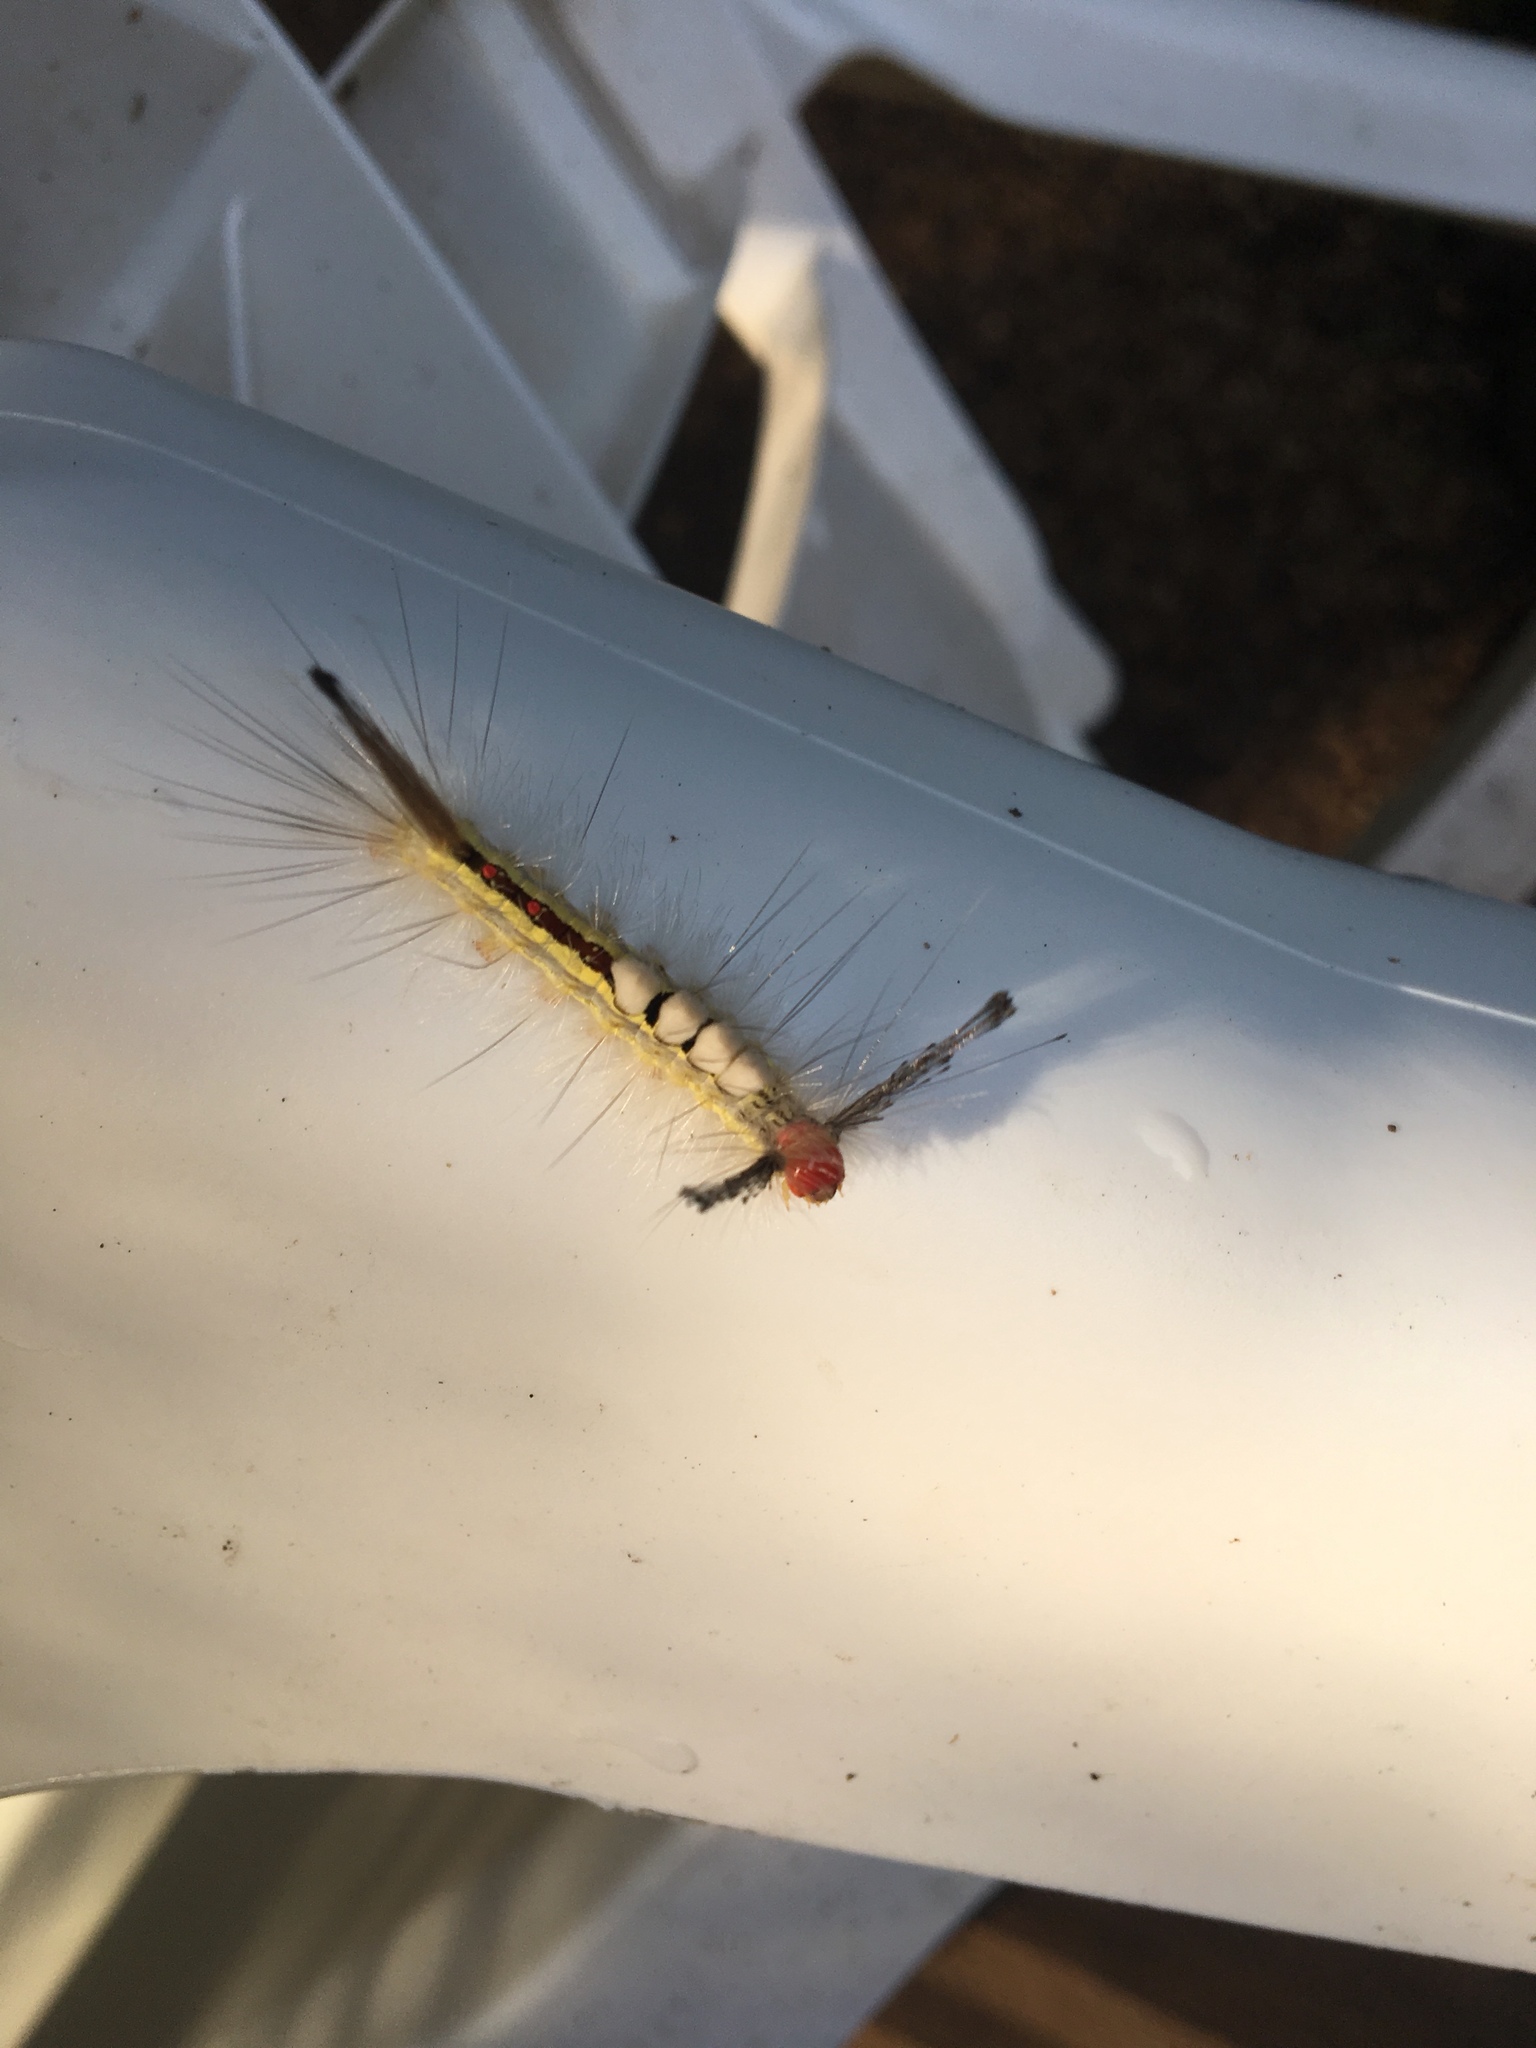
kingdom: Animalia
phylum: Arthropoda
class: Insecta
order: Lepidoptera
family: Erebidae
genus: Orgyia
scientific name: Orgyia leucostigma
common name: White-marked tussock moth
